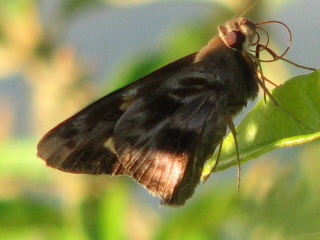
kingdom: Animalia
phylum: Arthropoda
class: Insecta
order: Lepidoptera
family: Hesperiidae
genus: Perichares
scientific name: Perichares philetes
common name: Green-backed ruby-eye
